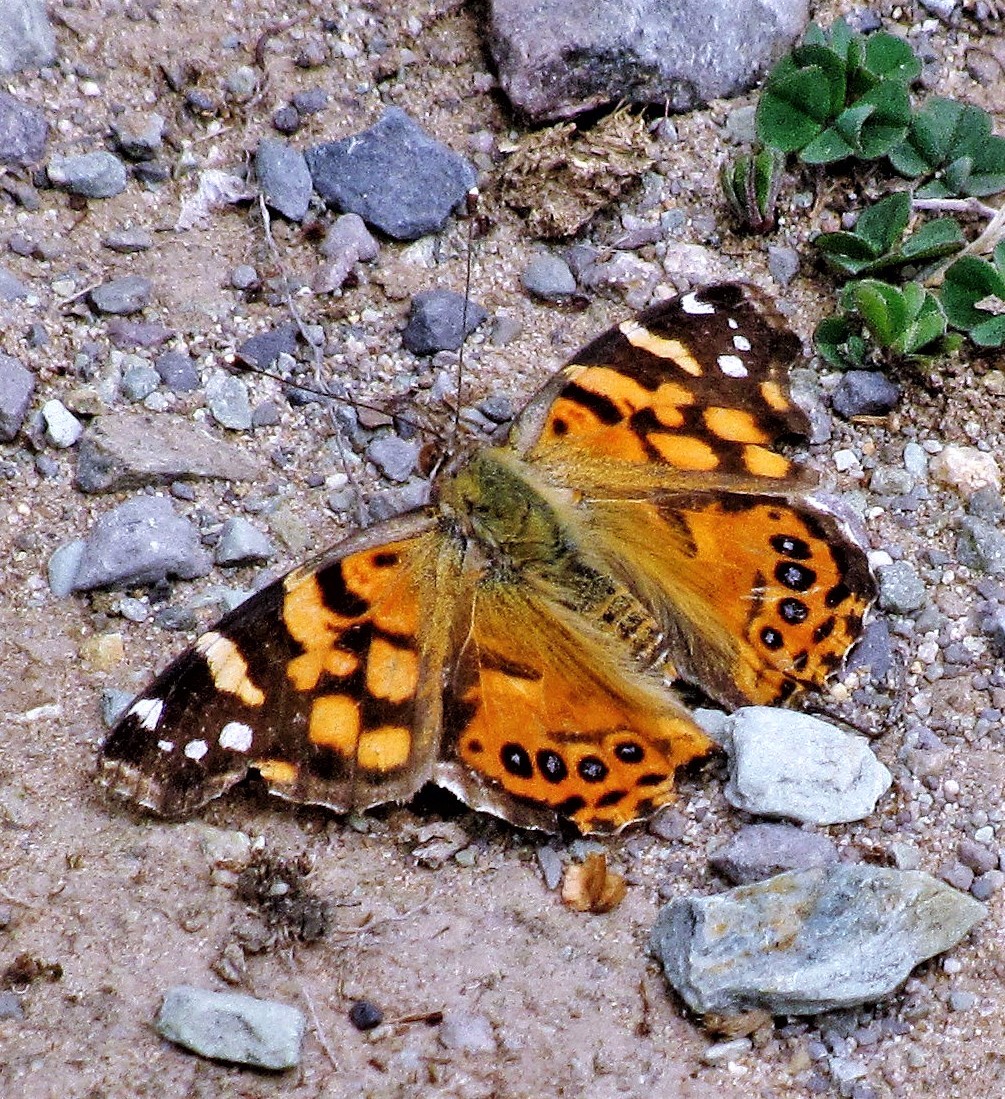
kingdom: Animalia
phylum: Arthropoda
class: Insecta
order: Lepidoptera
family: Nymphalidae
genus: Vanessa
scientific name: Vanessa carye
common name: Subtropical lady
